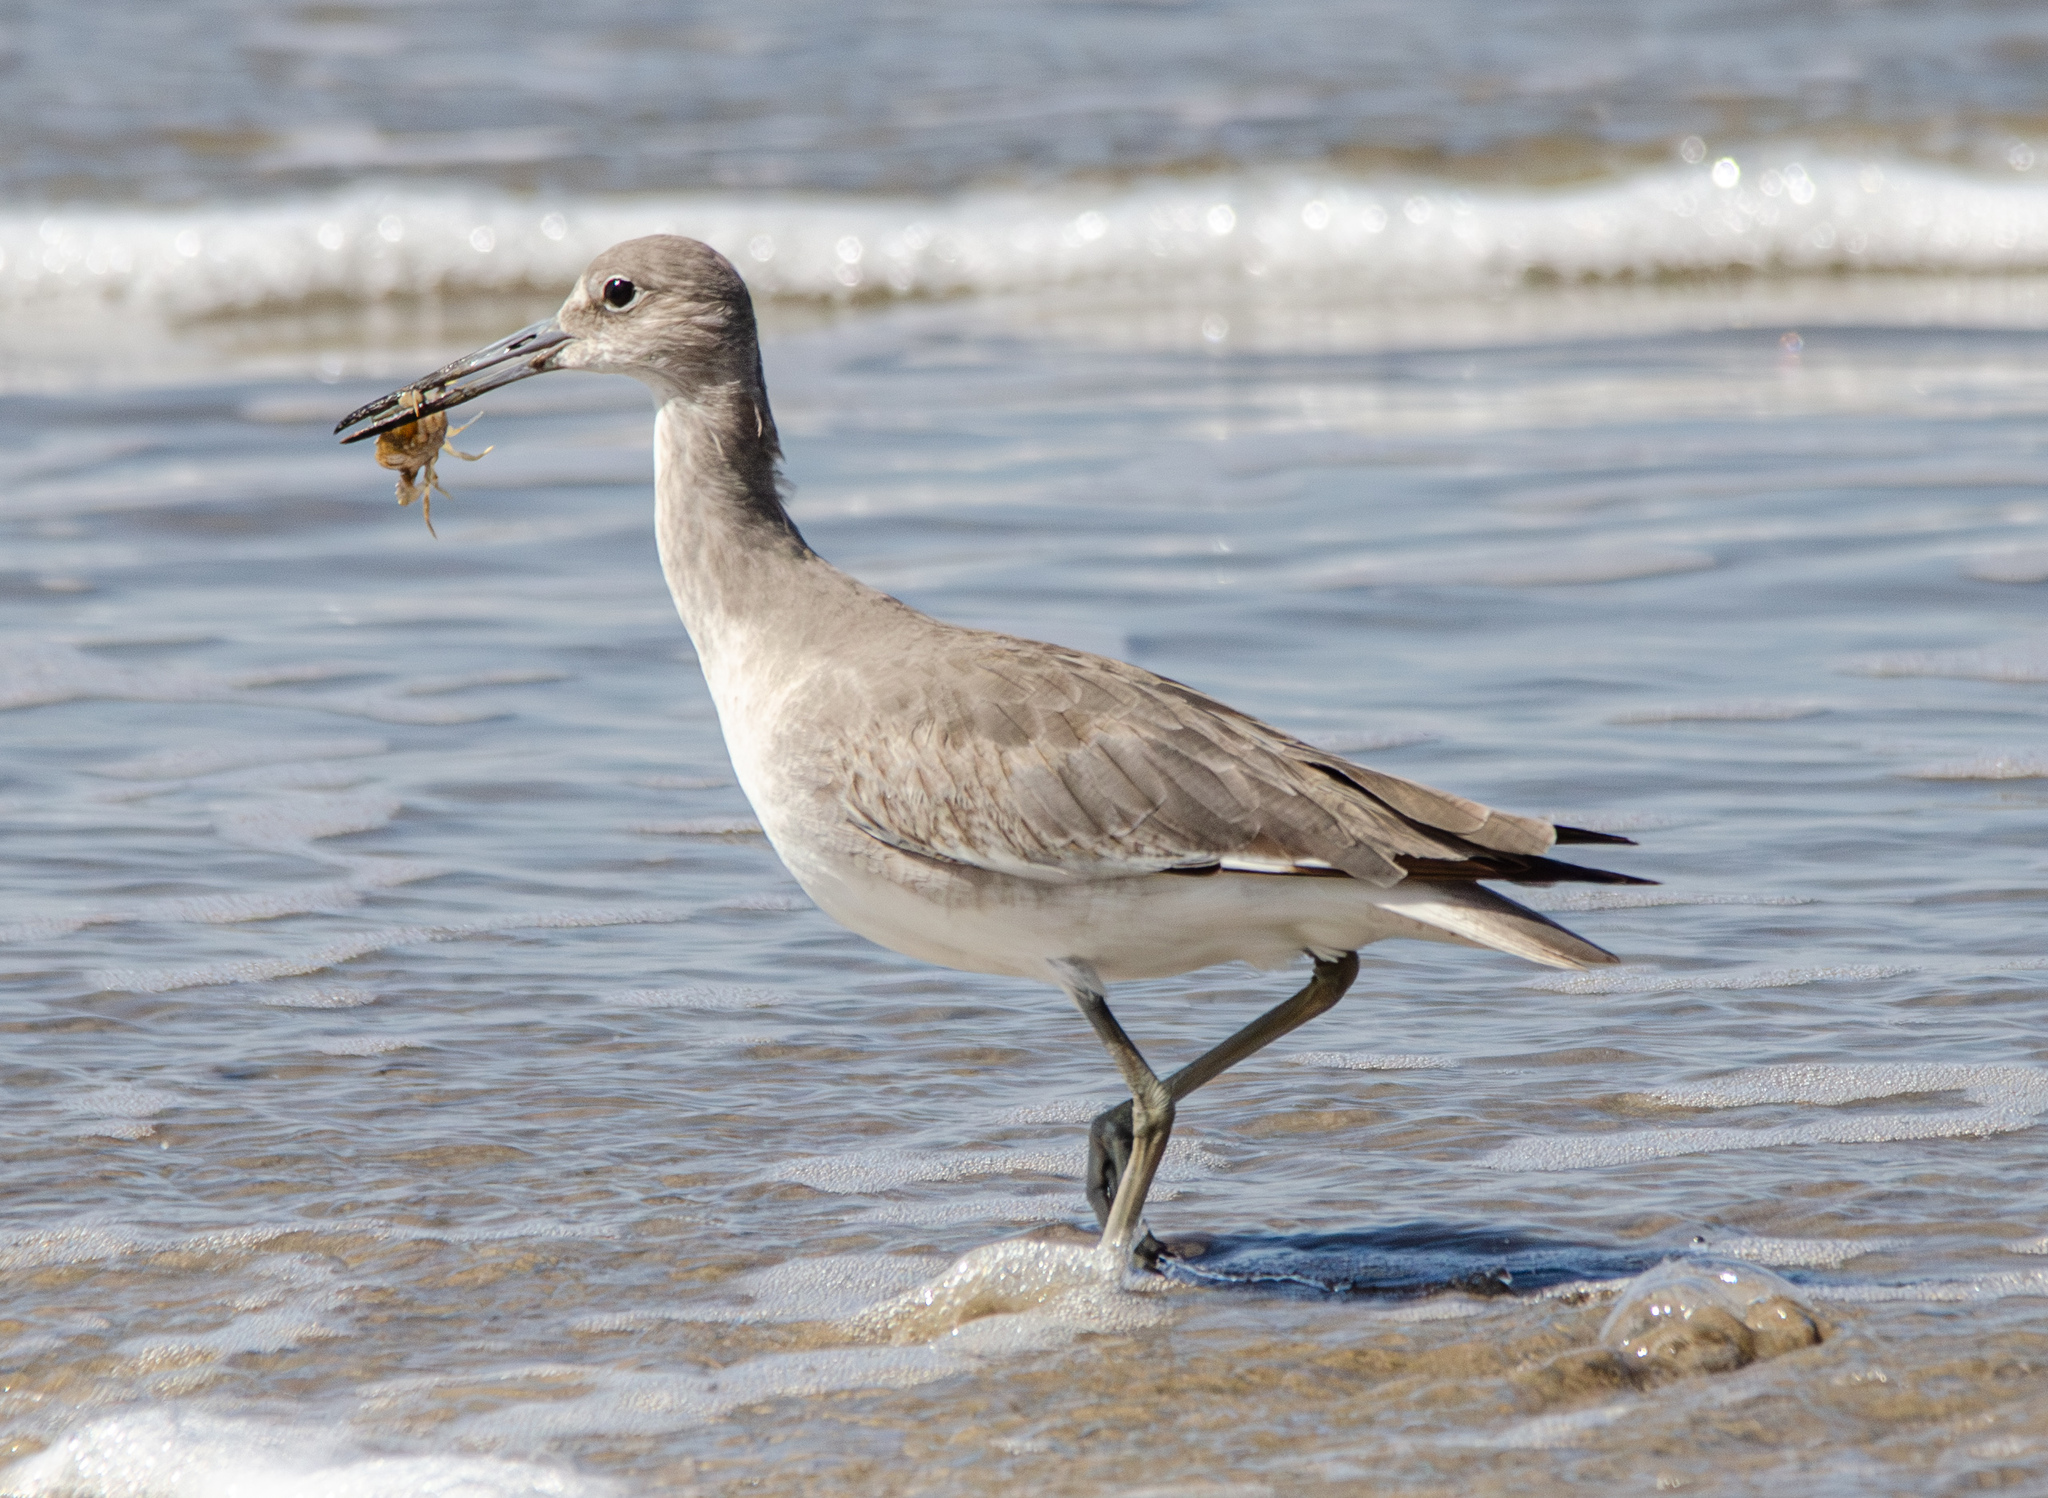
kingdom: Animalia
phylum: Chordata
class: Aves
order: Charadriiformes
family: Scolopacidae
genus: Tringa
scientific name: Tringa semipalmata
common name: Willet
